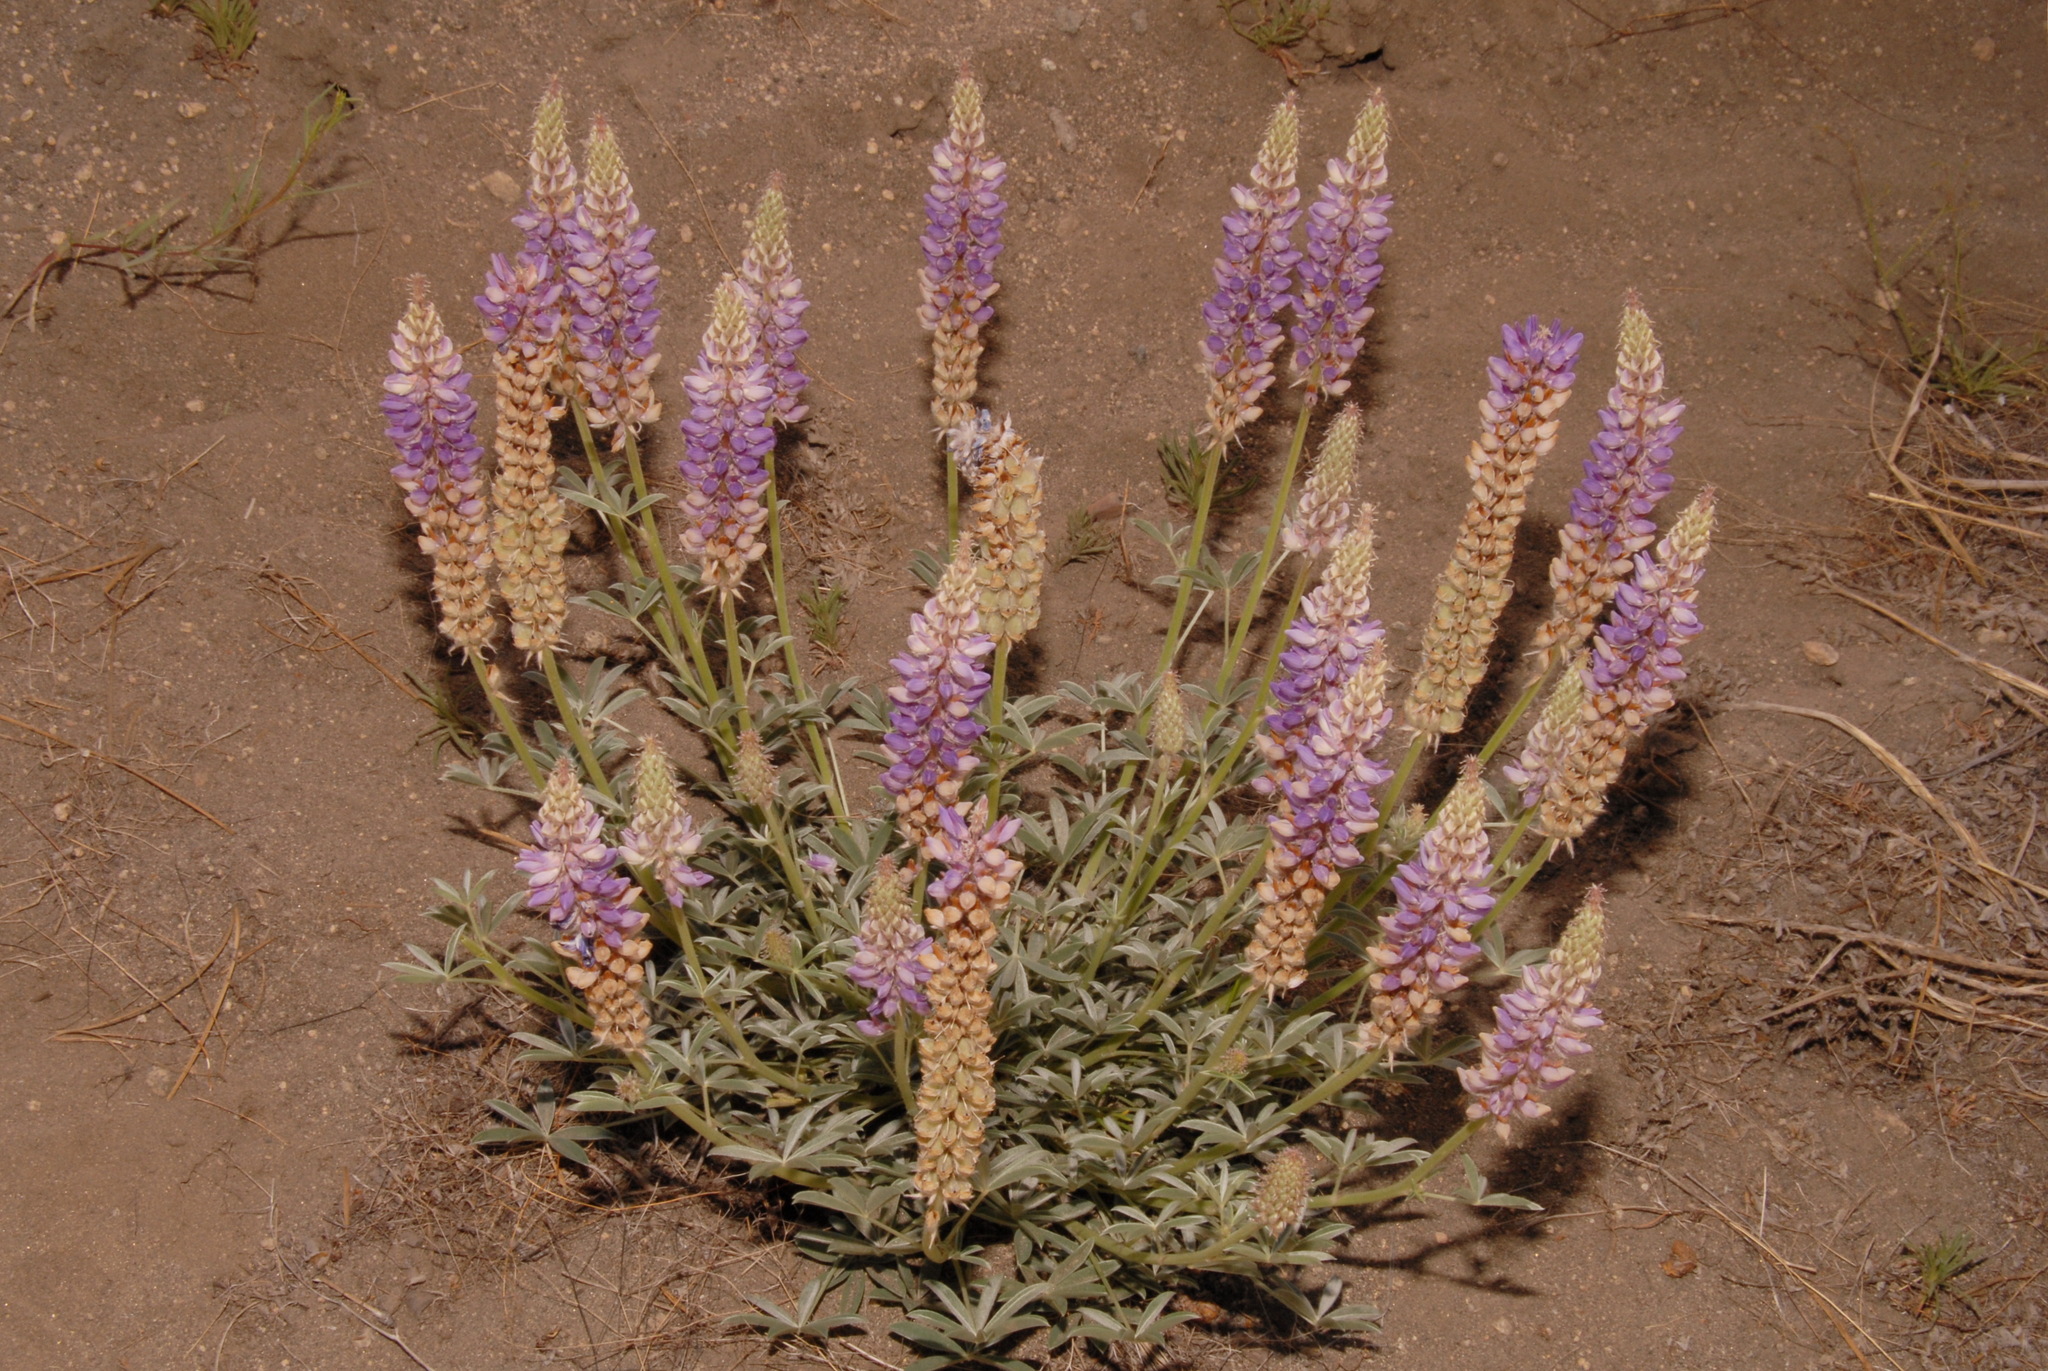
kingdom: Plantae
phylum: Tracheophyta
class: Magnoliopsida
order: Fabales
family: Fabaceae
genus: Lupinus
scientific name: Lupinus confertus
